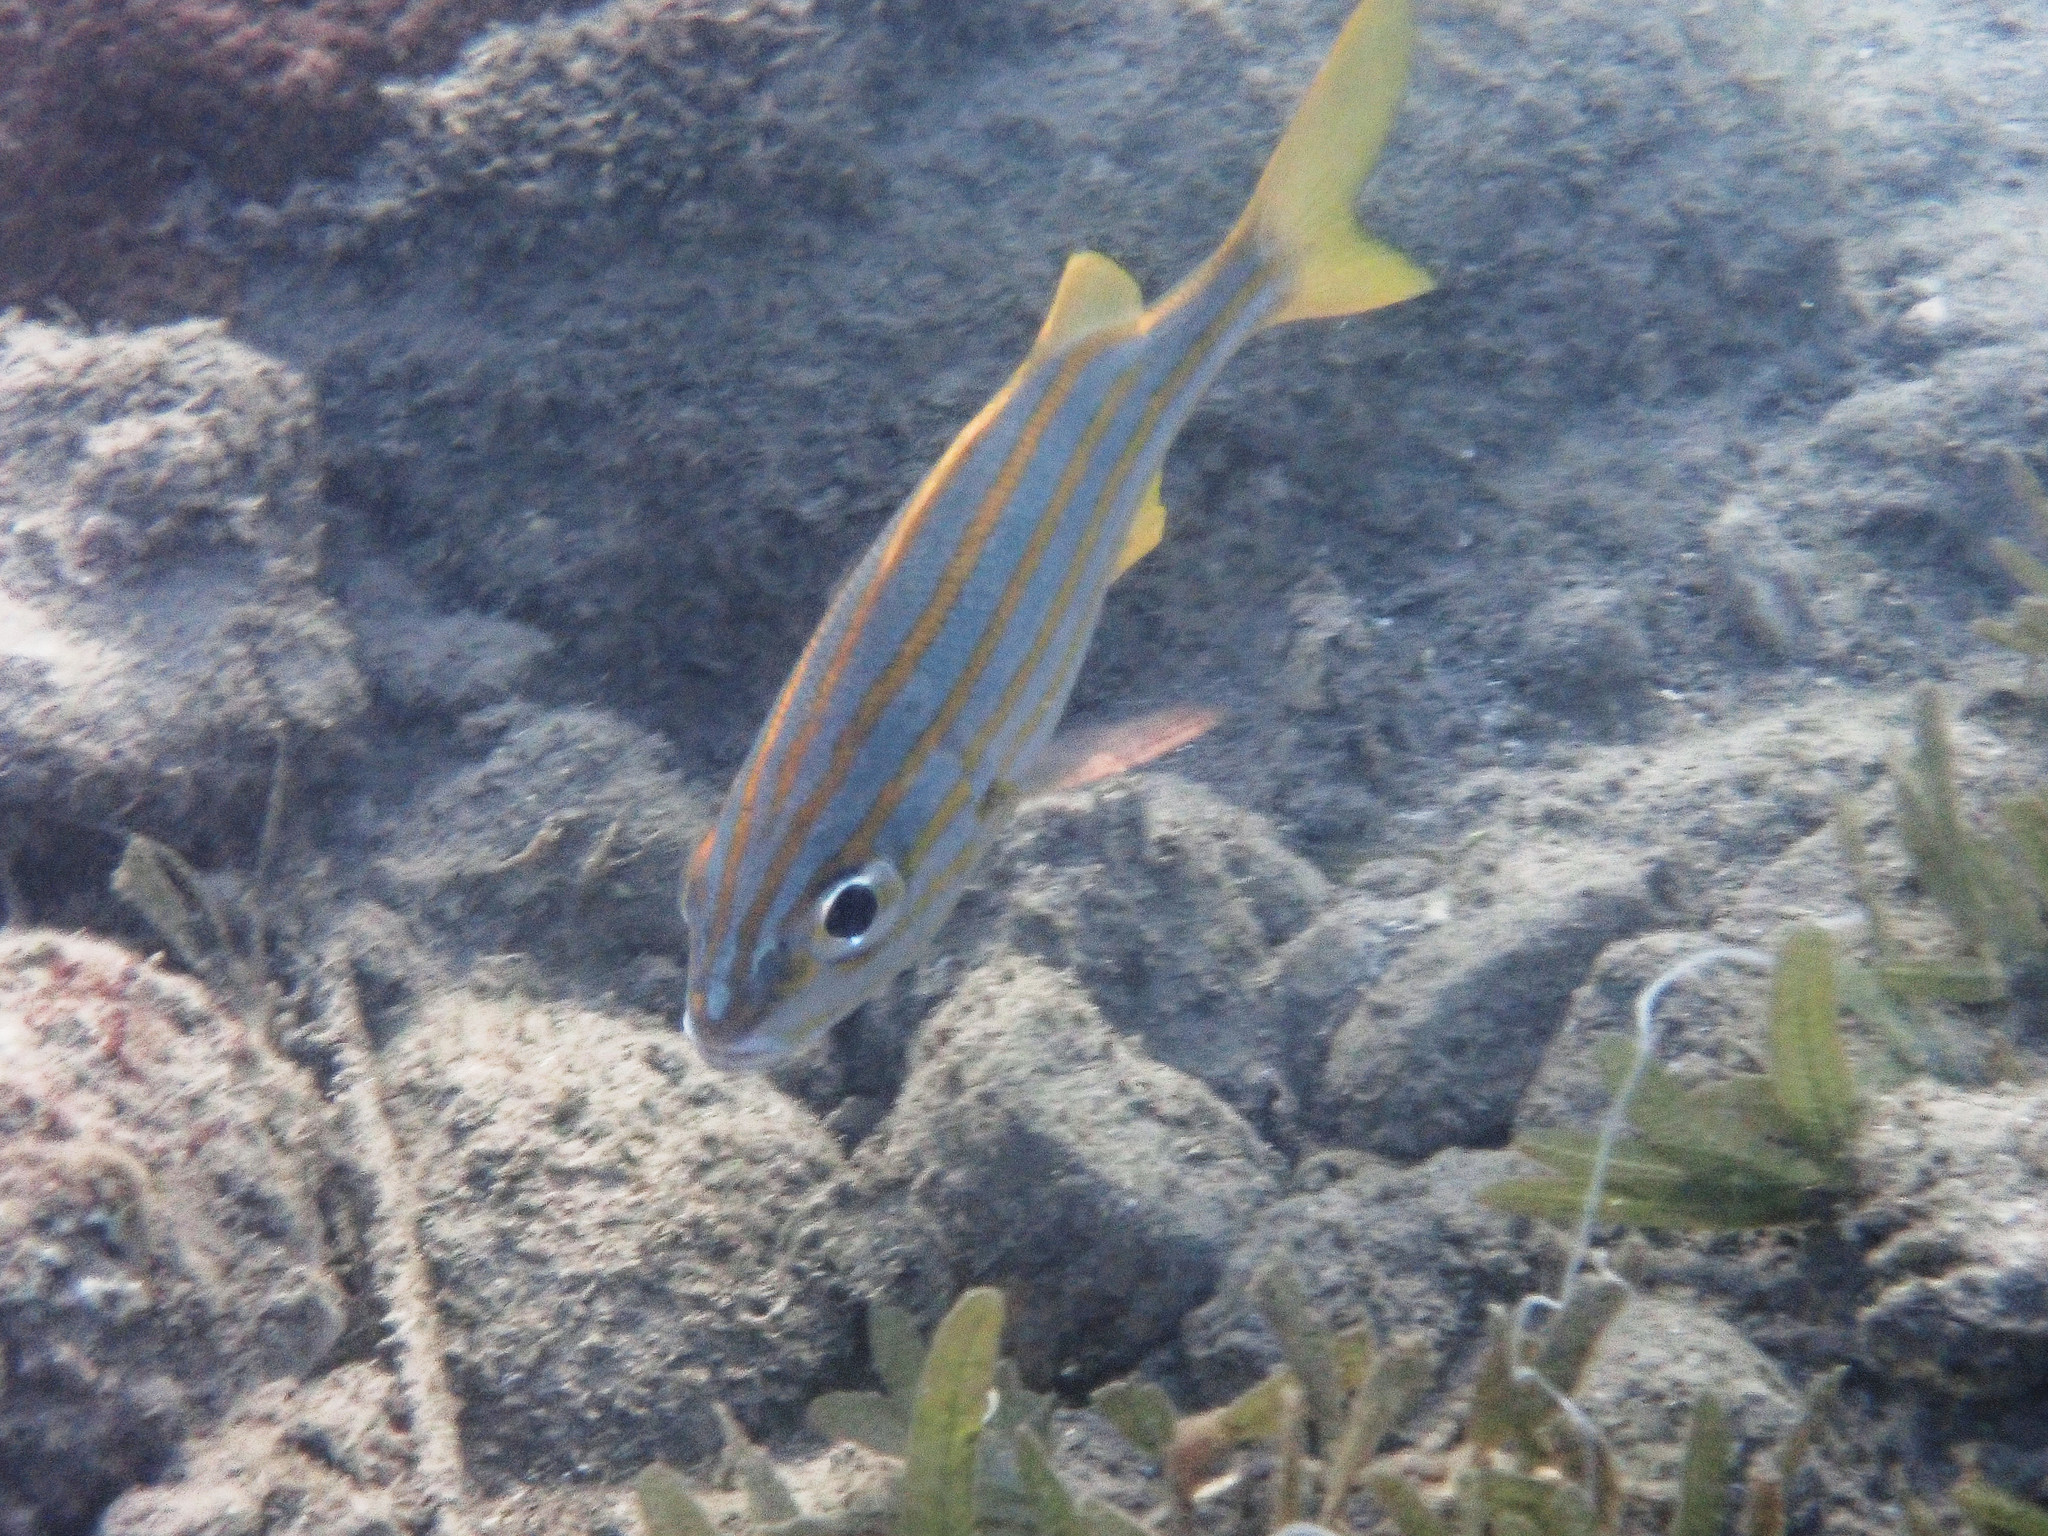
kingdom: Animalia
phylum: Chordata
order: Perciformes
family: Haemulidae
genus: Haemulon
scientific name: Haemulon chrysargyreum
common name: Smallmouth grunt
